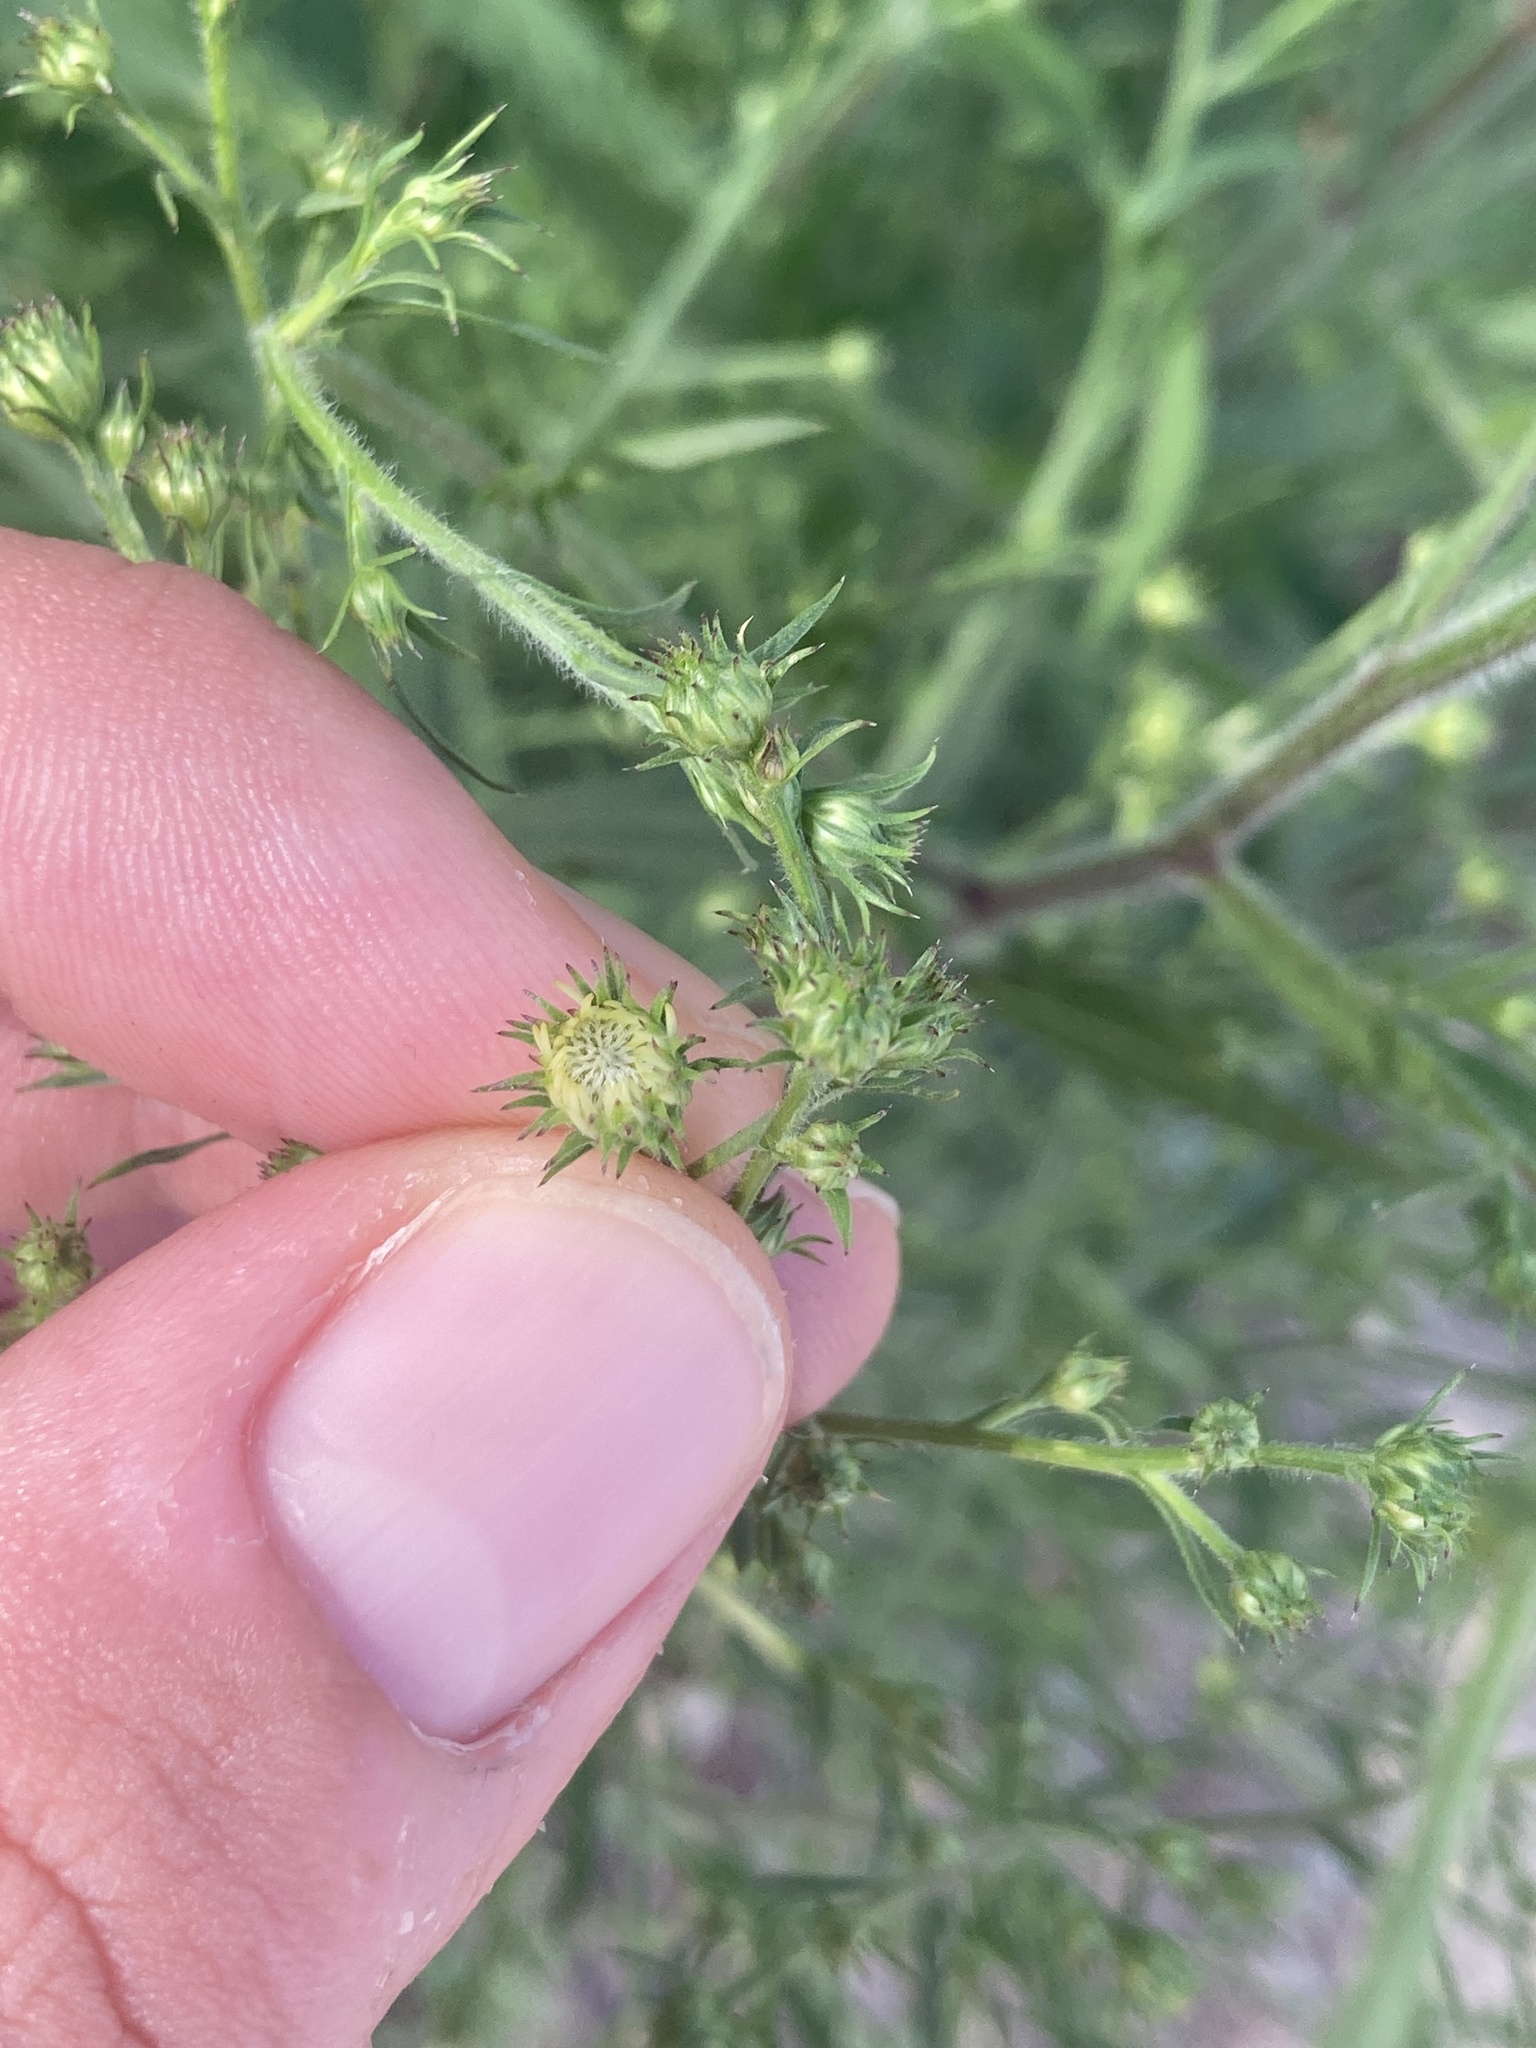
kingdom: Plantae
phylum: Tracheophyta
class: Magnoliopsida
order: Asterales
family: Asteraceae
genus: Symphyotrichum
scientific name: Symphyotrichum pilosum
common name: Awl aster
